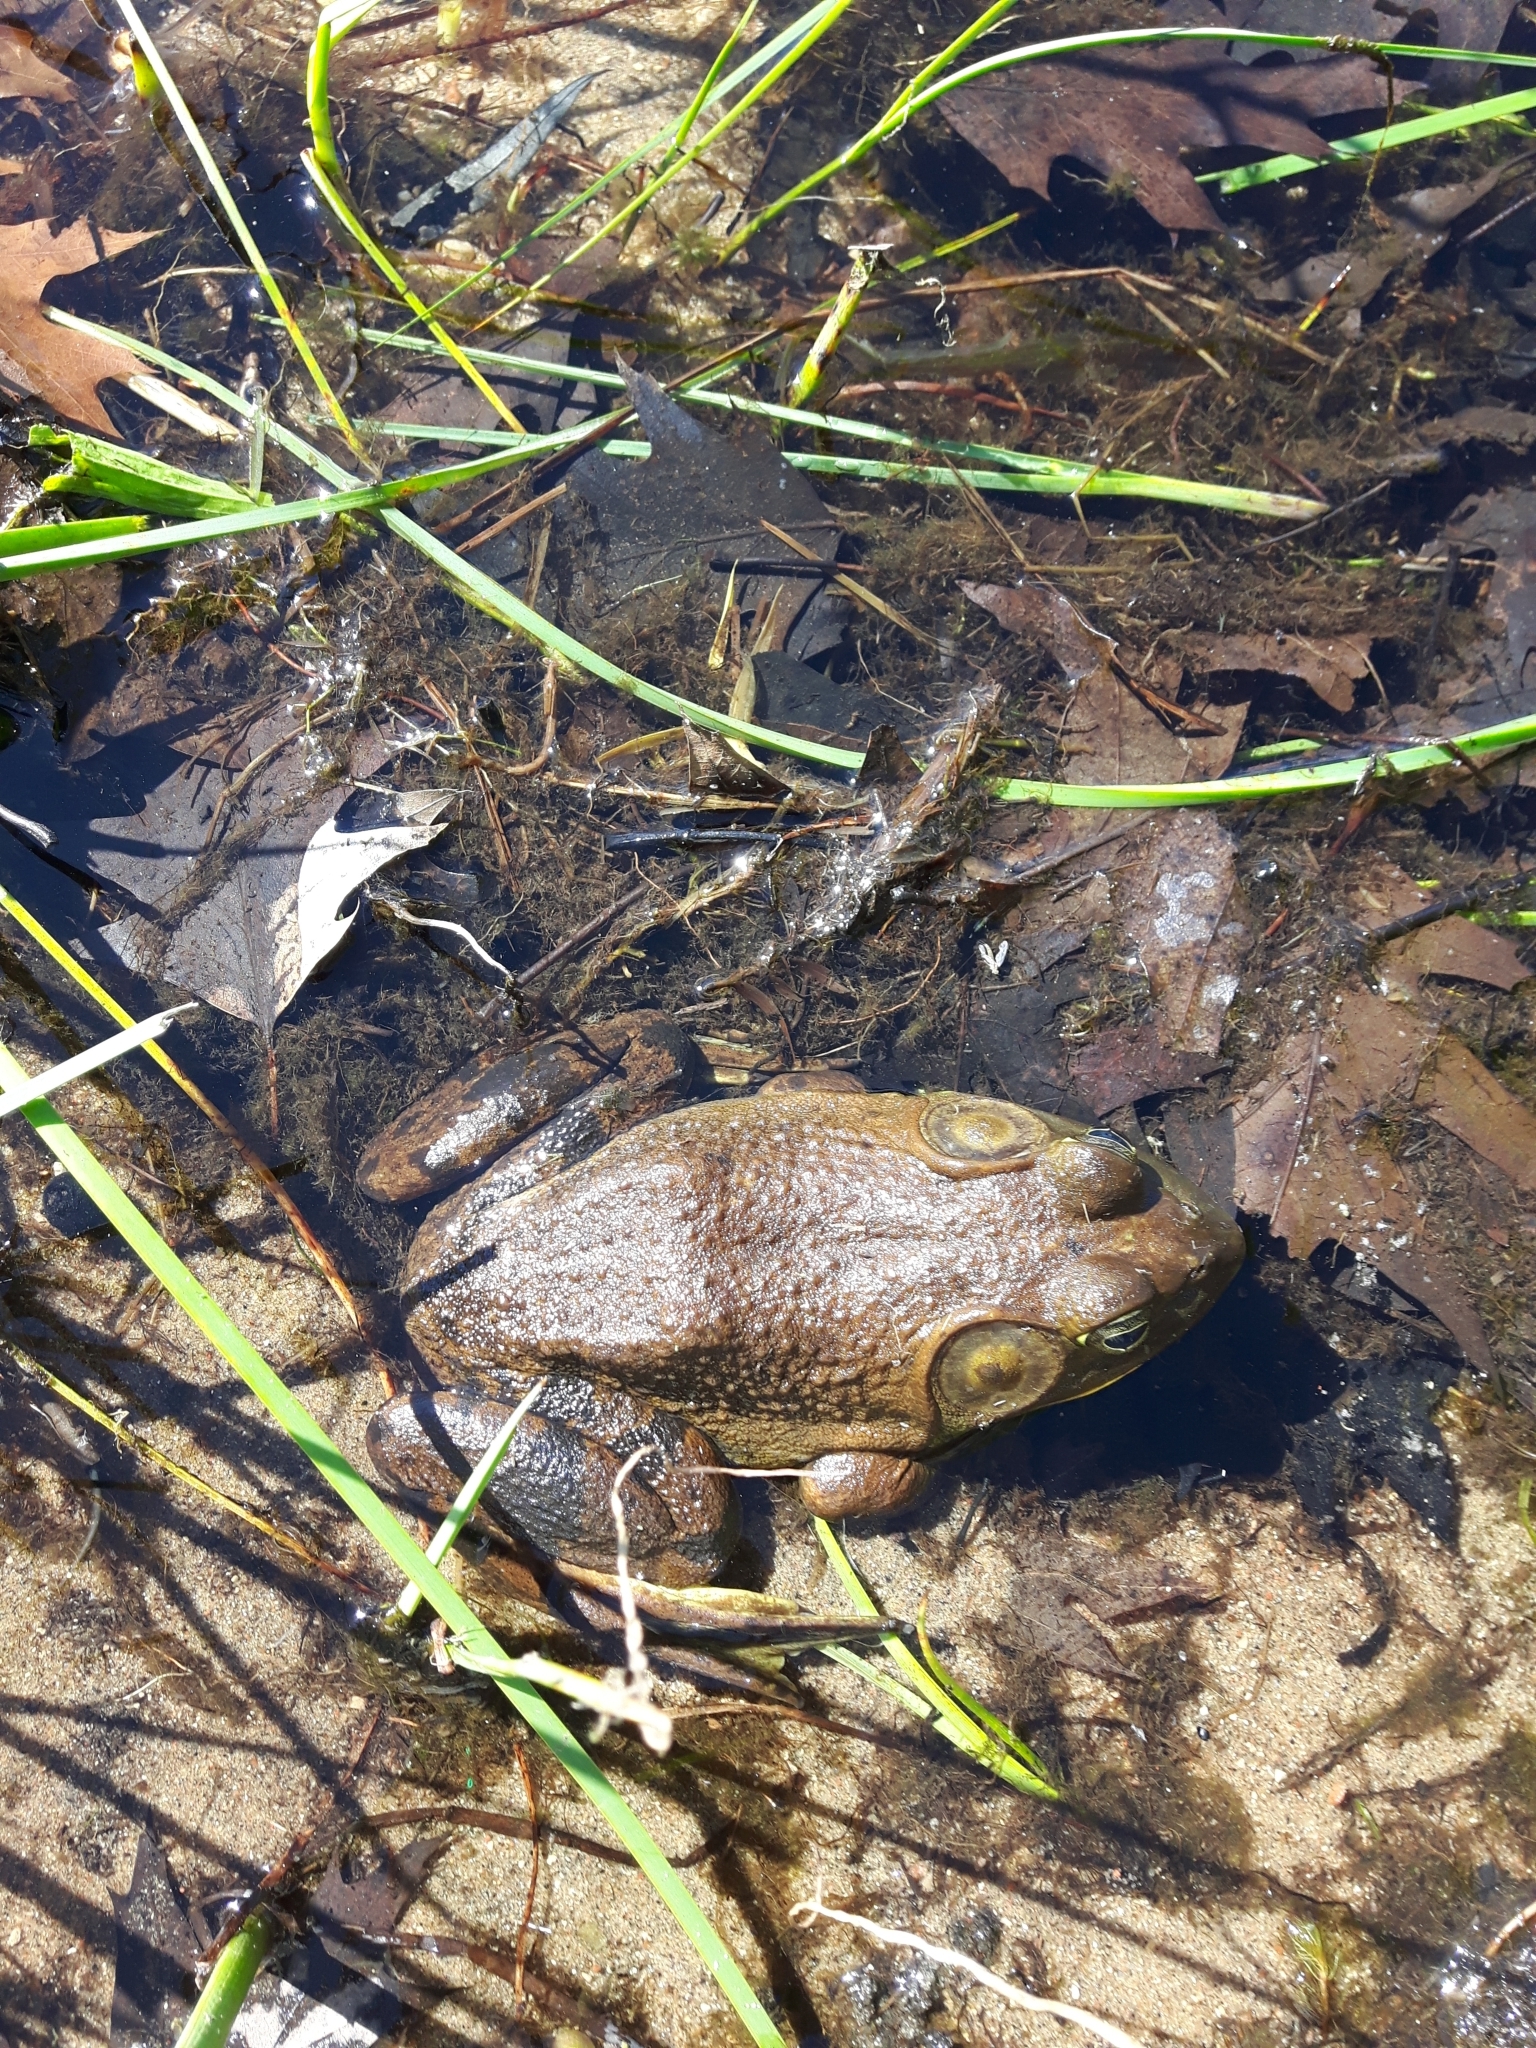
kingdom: Animalia
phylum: Chordata
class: Amphibia
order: Anura
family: Ranidae
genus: Lithobates
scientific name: Lithobates catesbeianus
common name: American bullfrog
